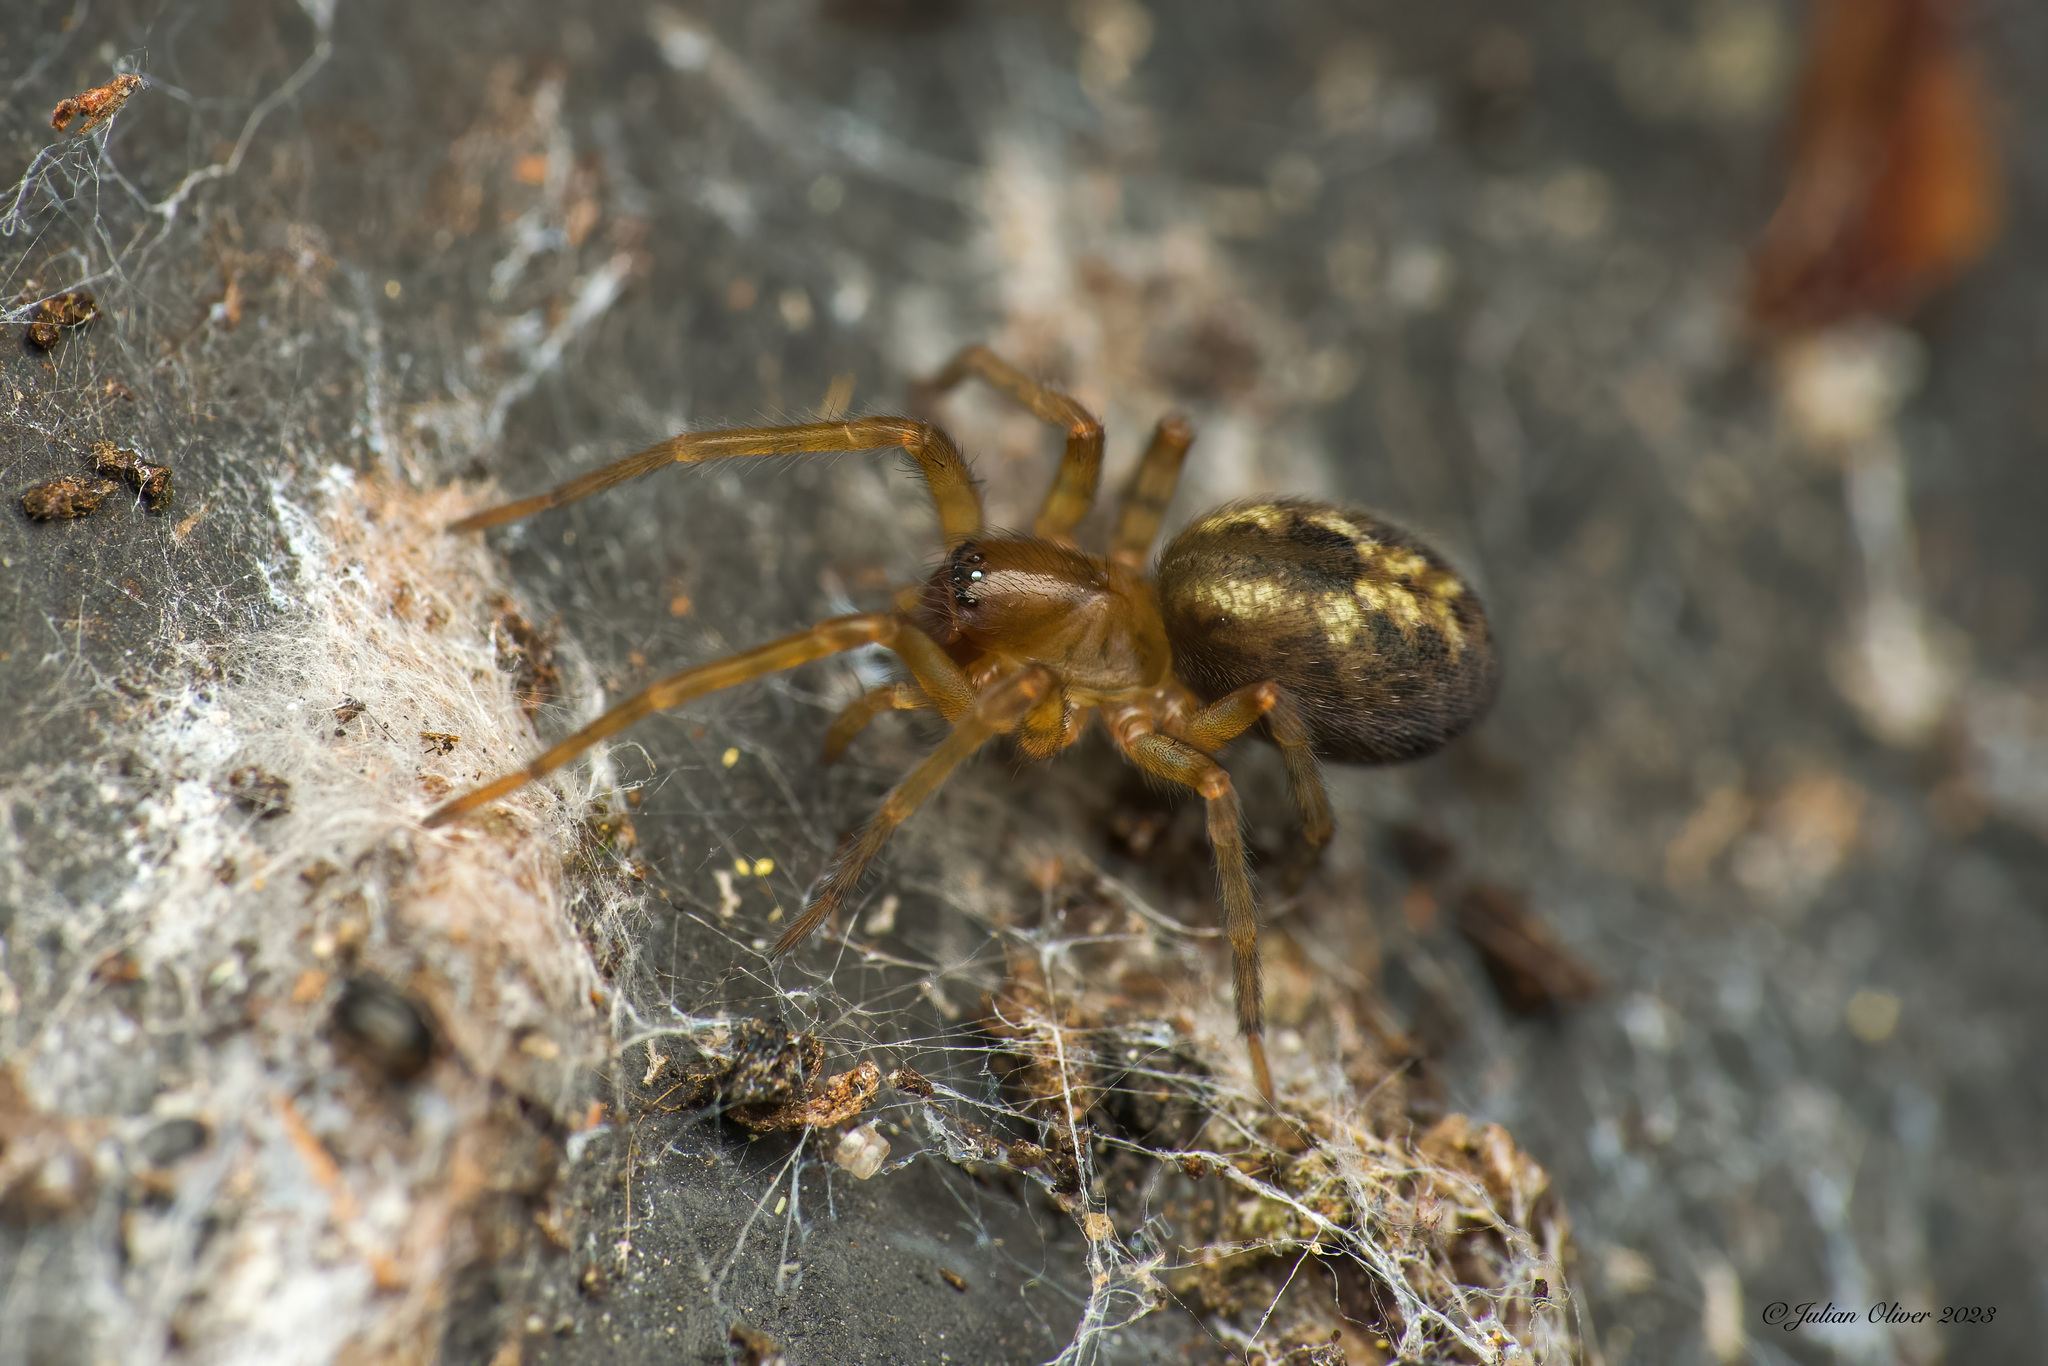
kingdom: Animalia
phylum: Arthropoda
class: Arachnida
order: Araneae
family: Amaurobiidae
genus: Amaurobius
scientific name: Amaurobius similis
